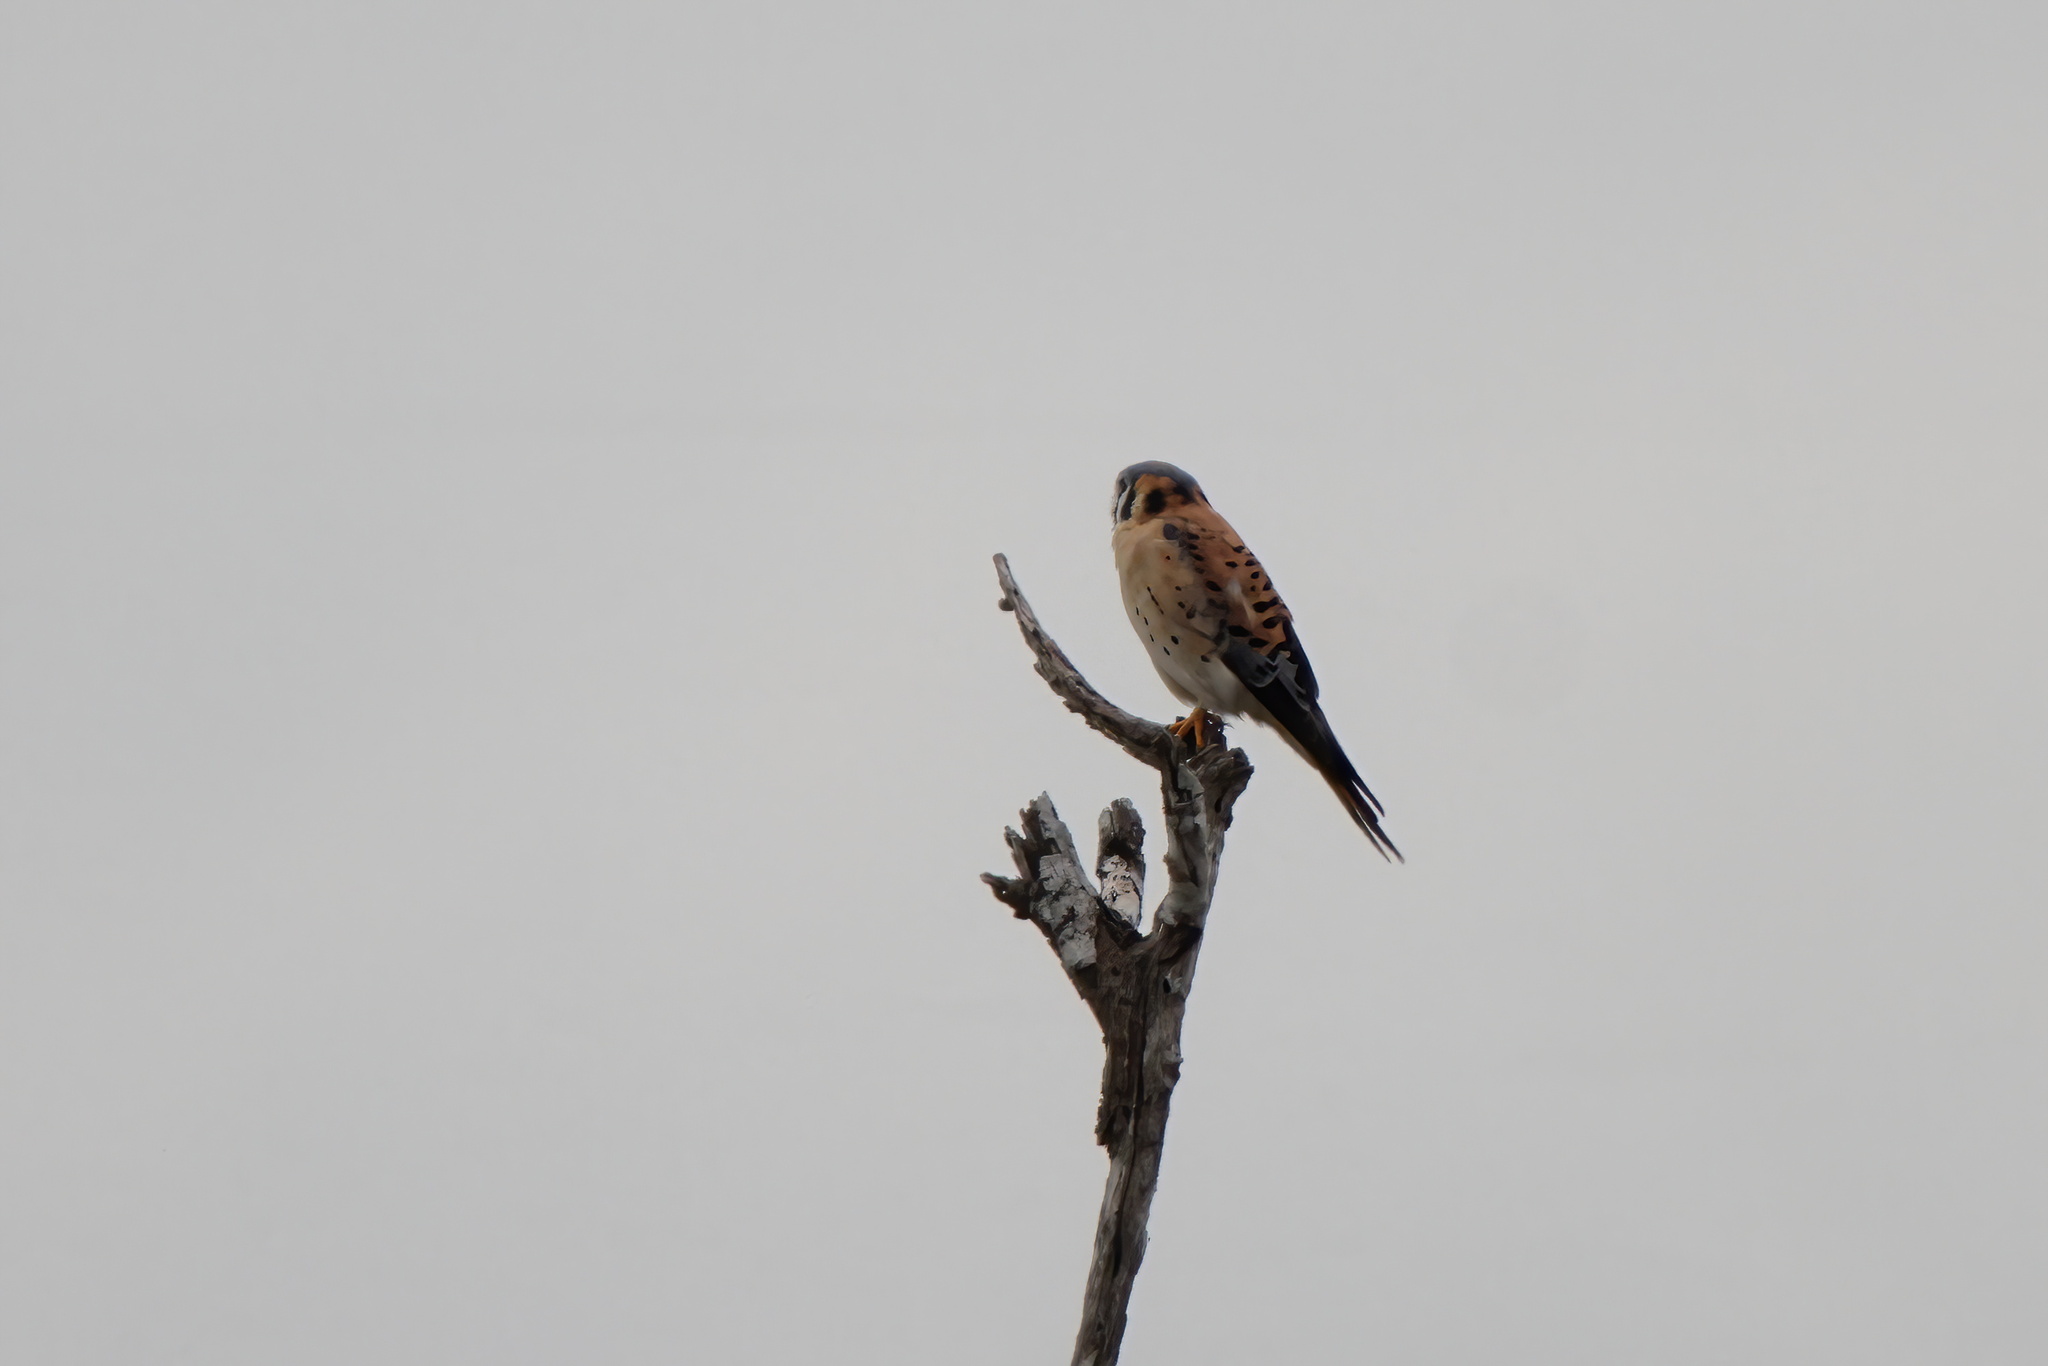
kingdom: Animalia
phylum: Chordata
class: Aves
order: Falconiformes
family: Falconidae
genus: Falco
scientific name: Falco sparverius
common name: American kestrel
